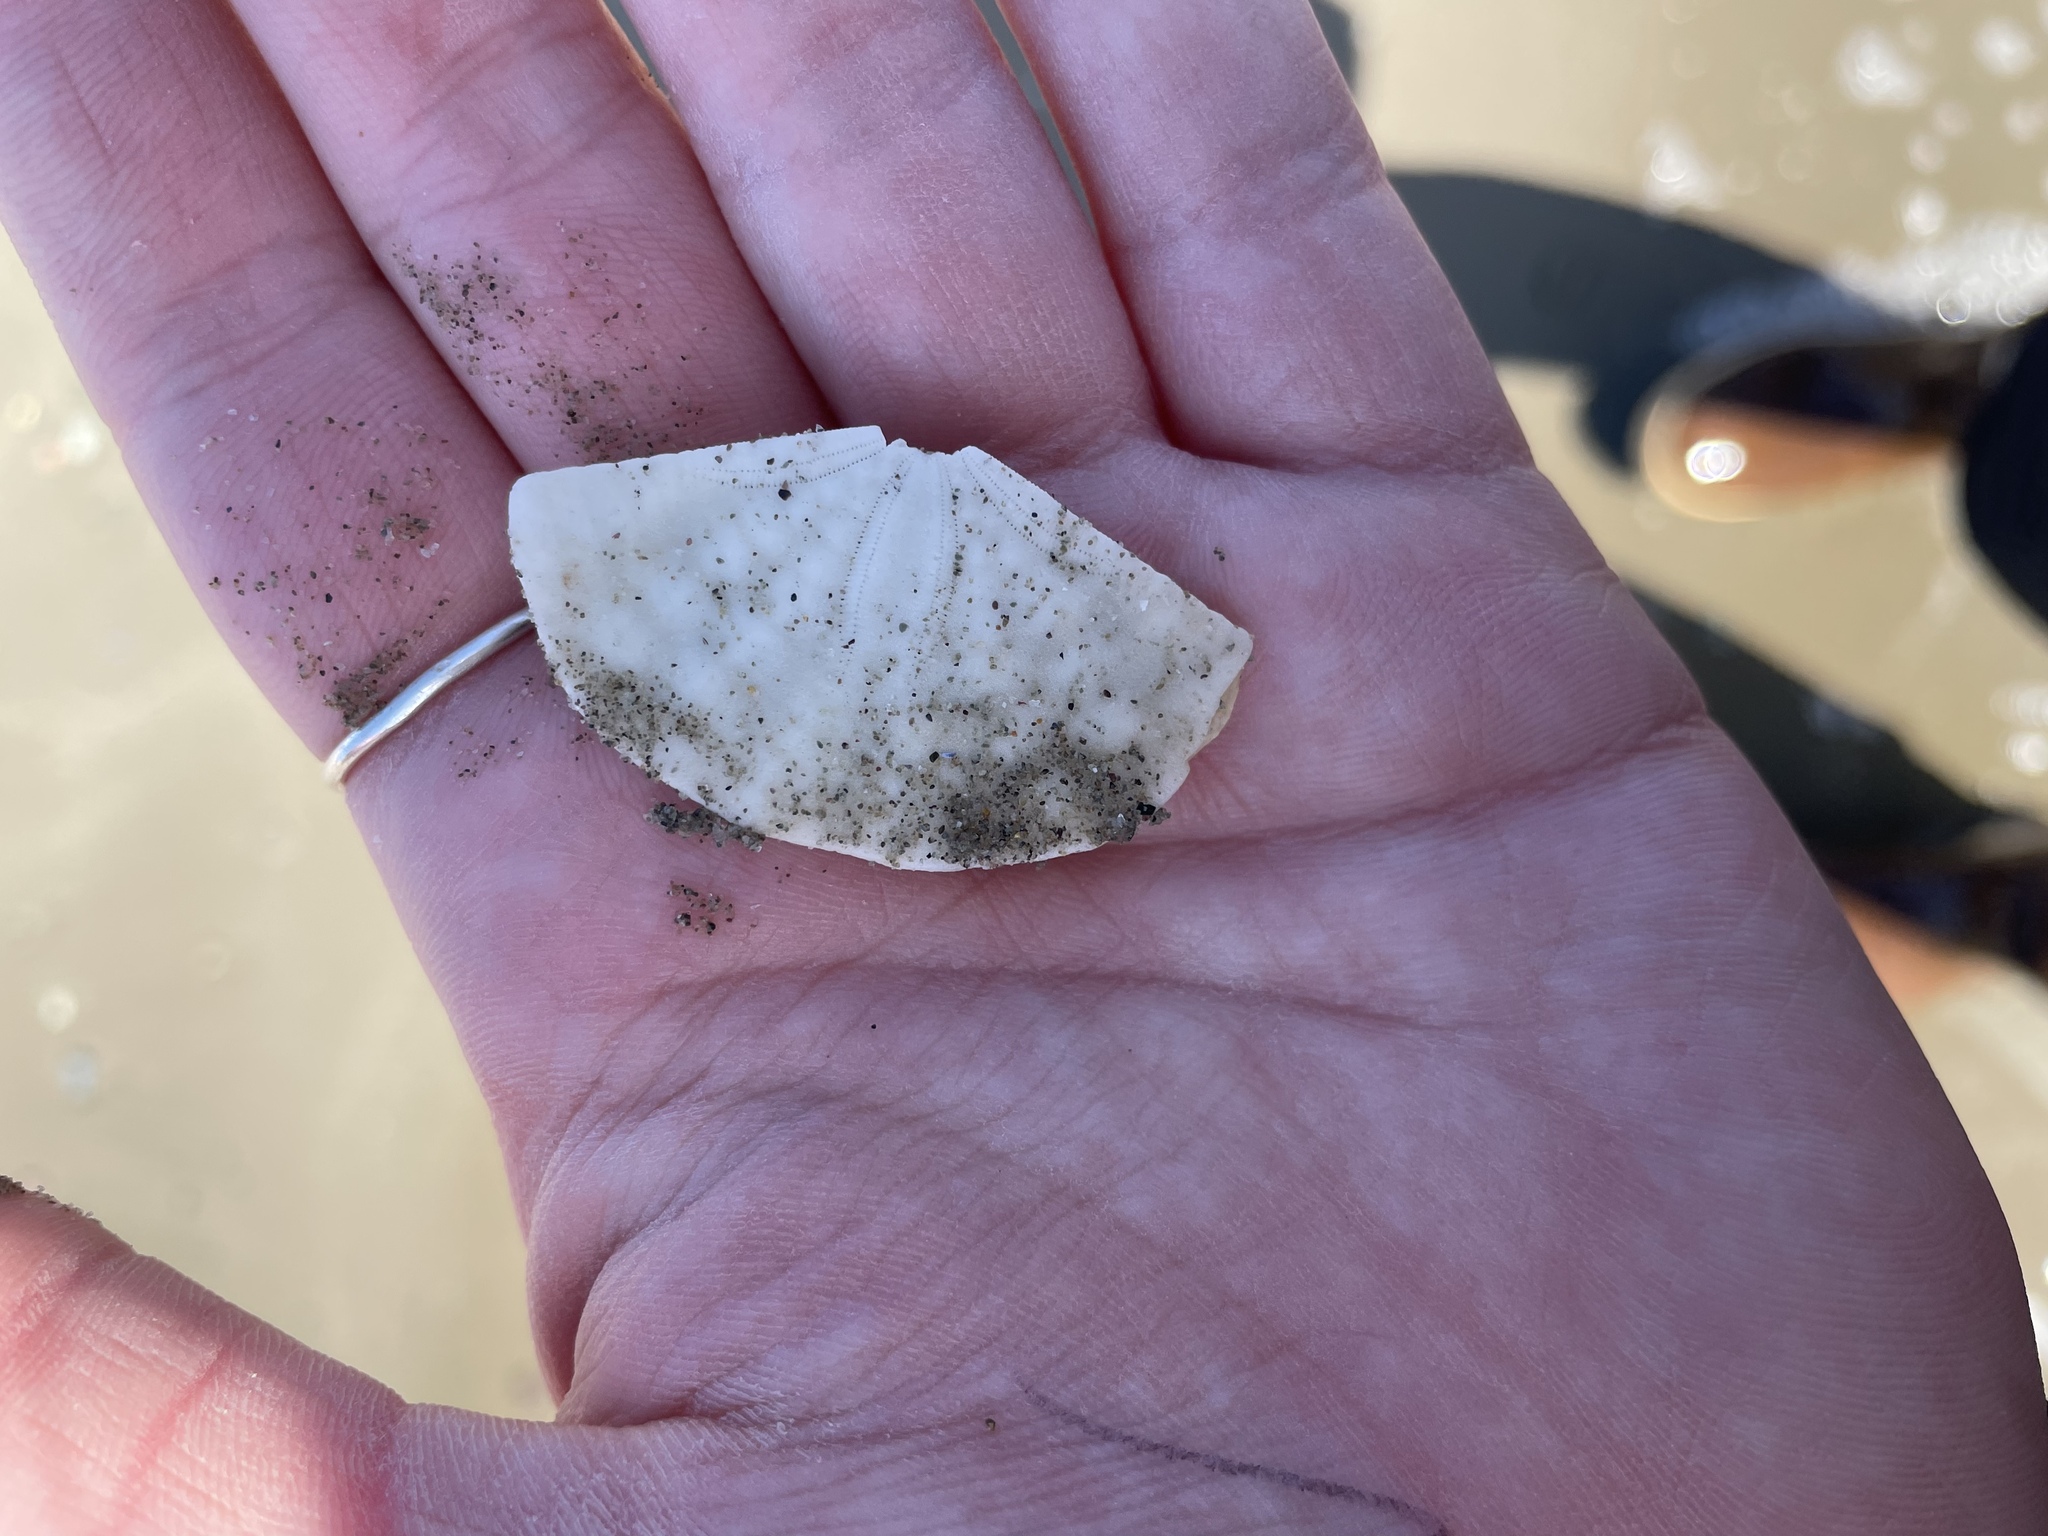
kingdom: Animalia
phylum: Echinodermata
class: Echinoidea
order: Echinolampadacea
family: Echinarachniidae
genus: Echinarachnius
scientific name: Echinarachnius parma
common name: Common sand dollar
